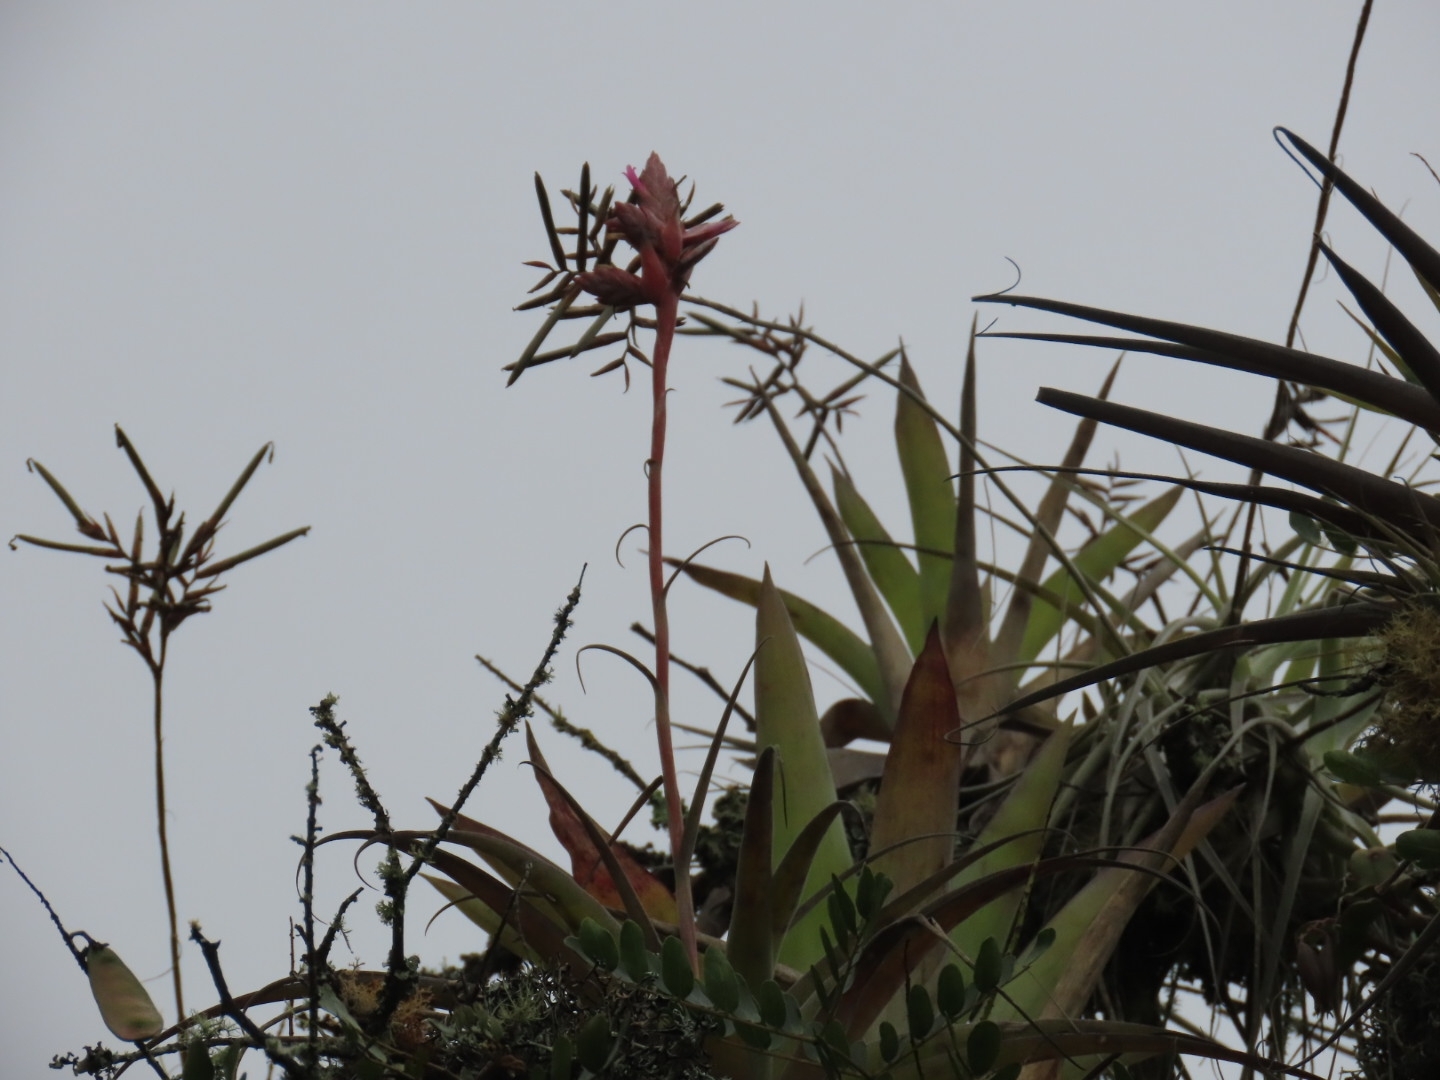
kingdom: Plantae
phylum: Tracheophyta
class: Liliopsida
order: Poales
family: Bromeliaceae
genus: Tillandsia
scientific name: Tillandsia latifolia
